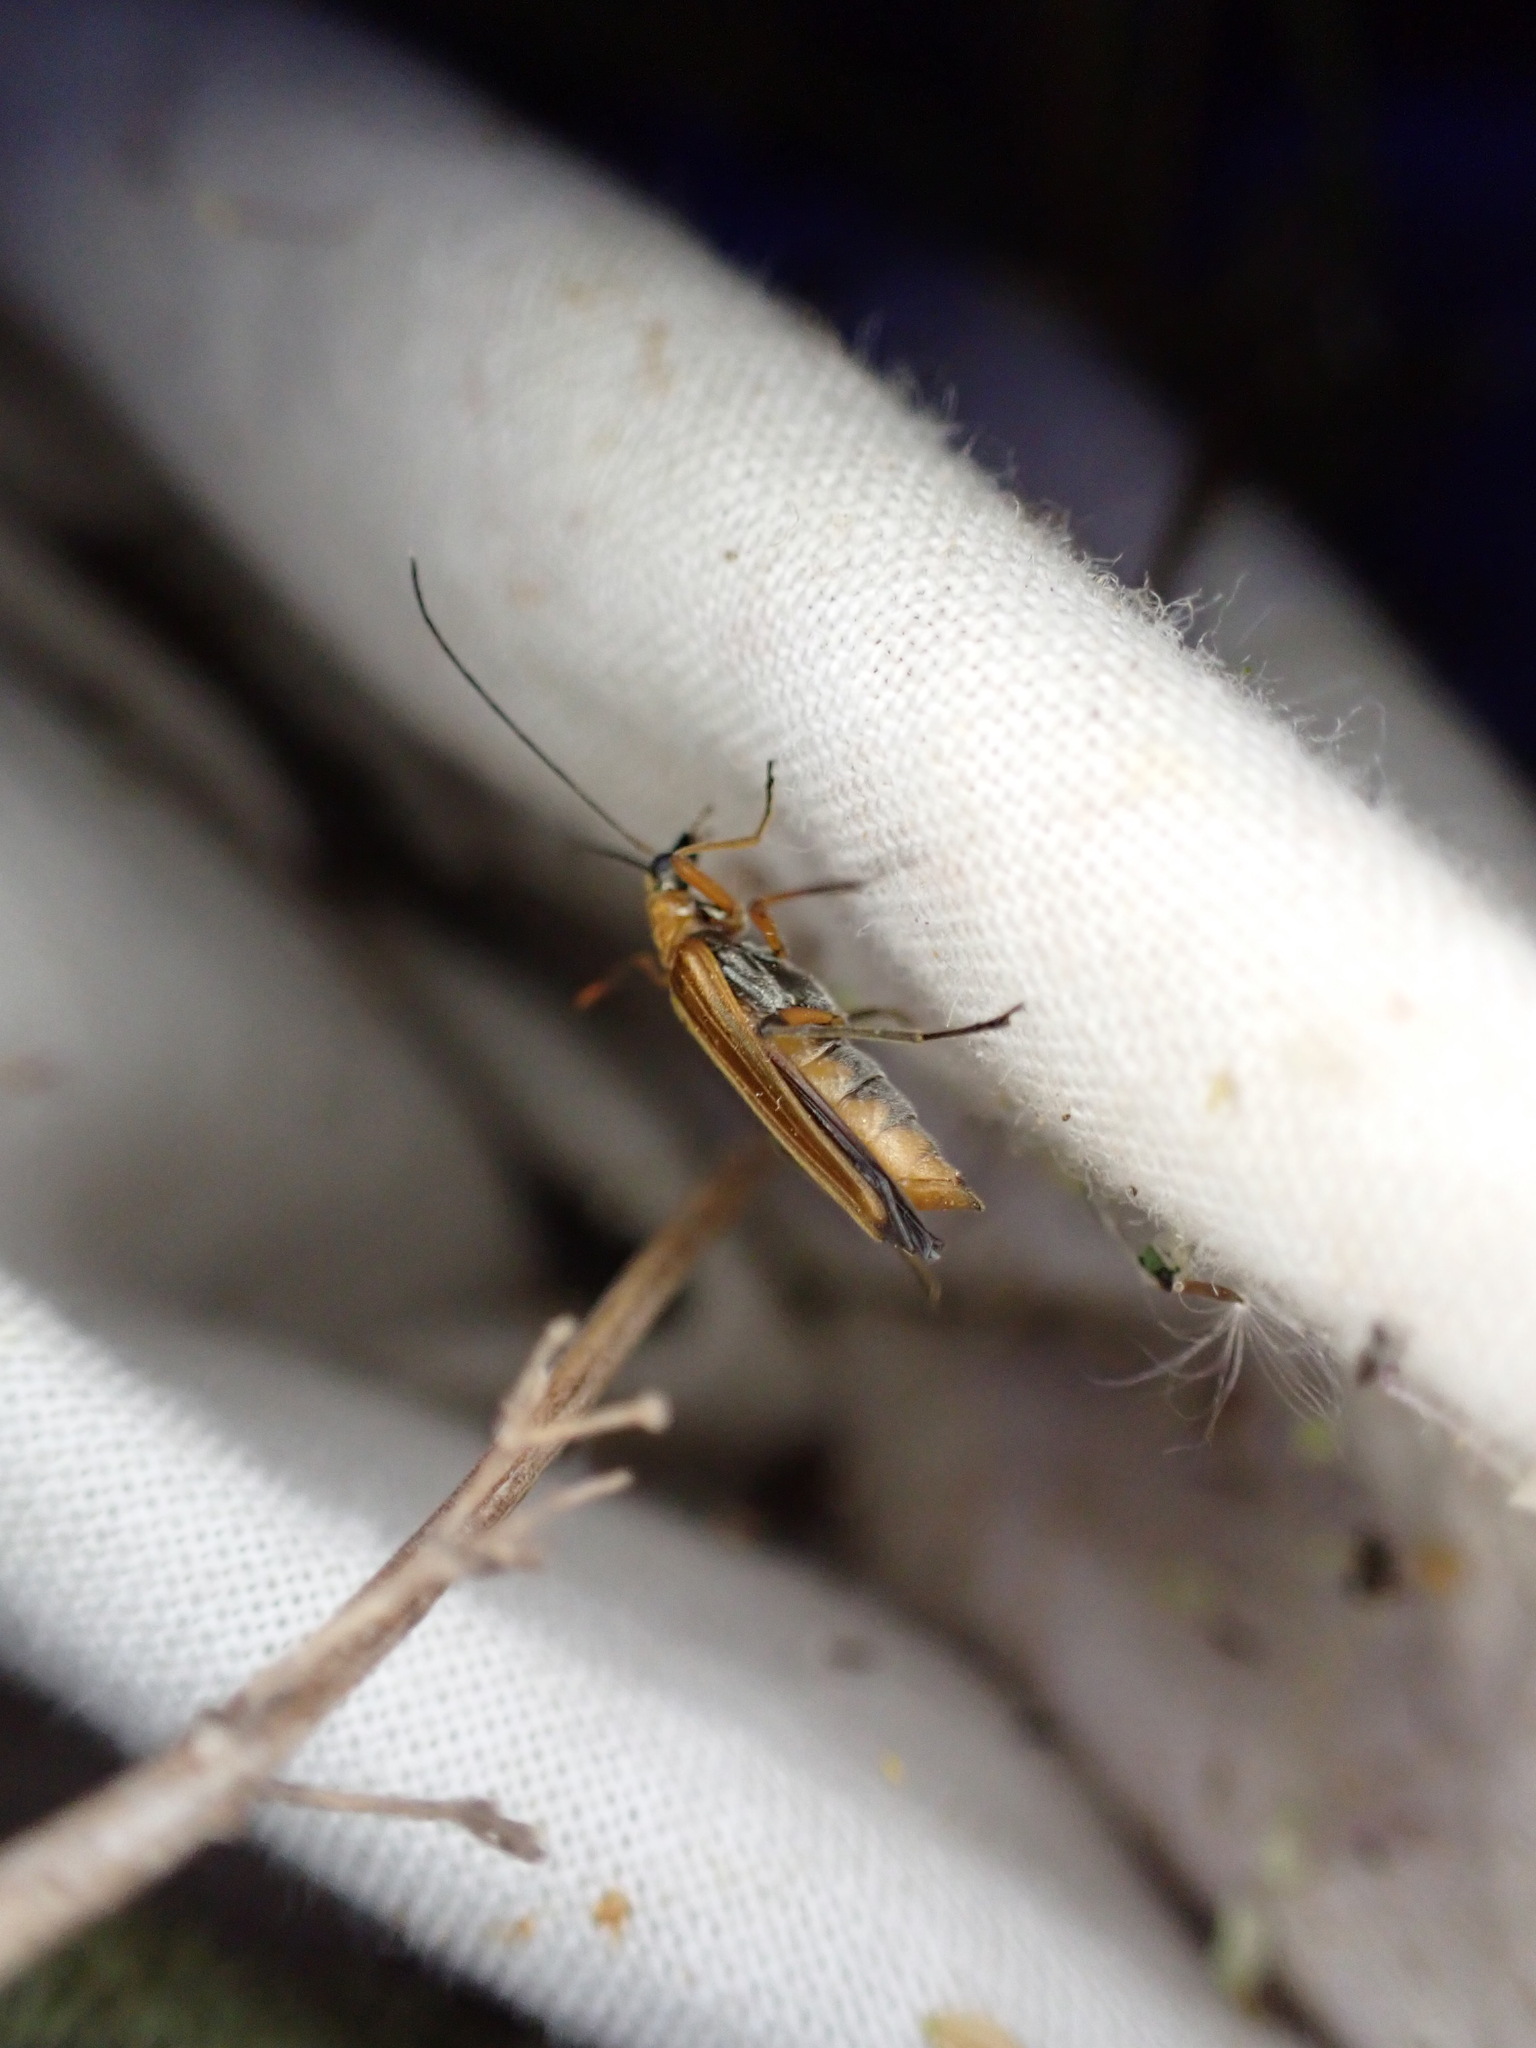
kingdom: Animalia
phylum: Arthropoda
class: Insecta
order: Coleoptera
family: Oedemeridae
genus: Oedemera
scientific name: Oedemera podagrariae
